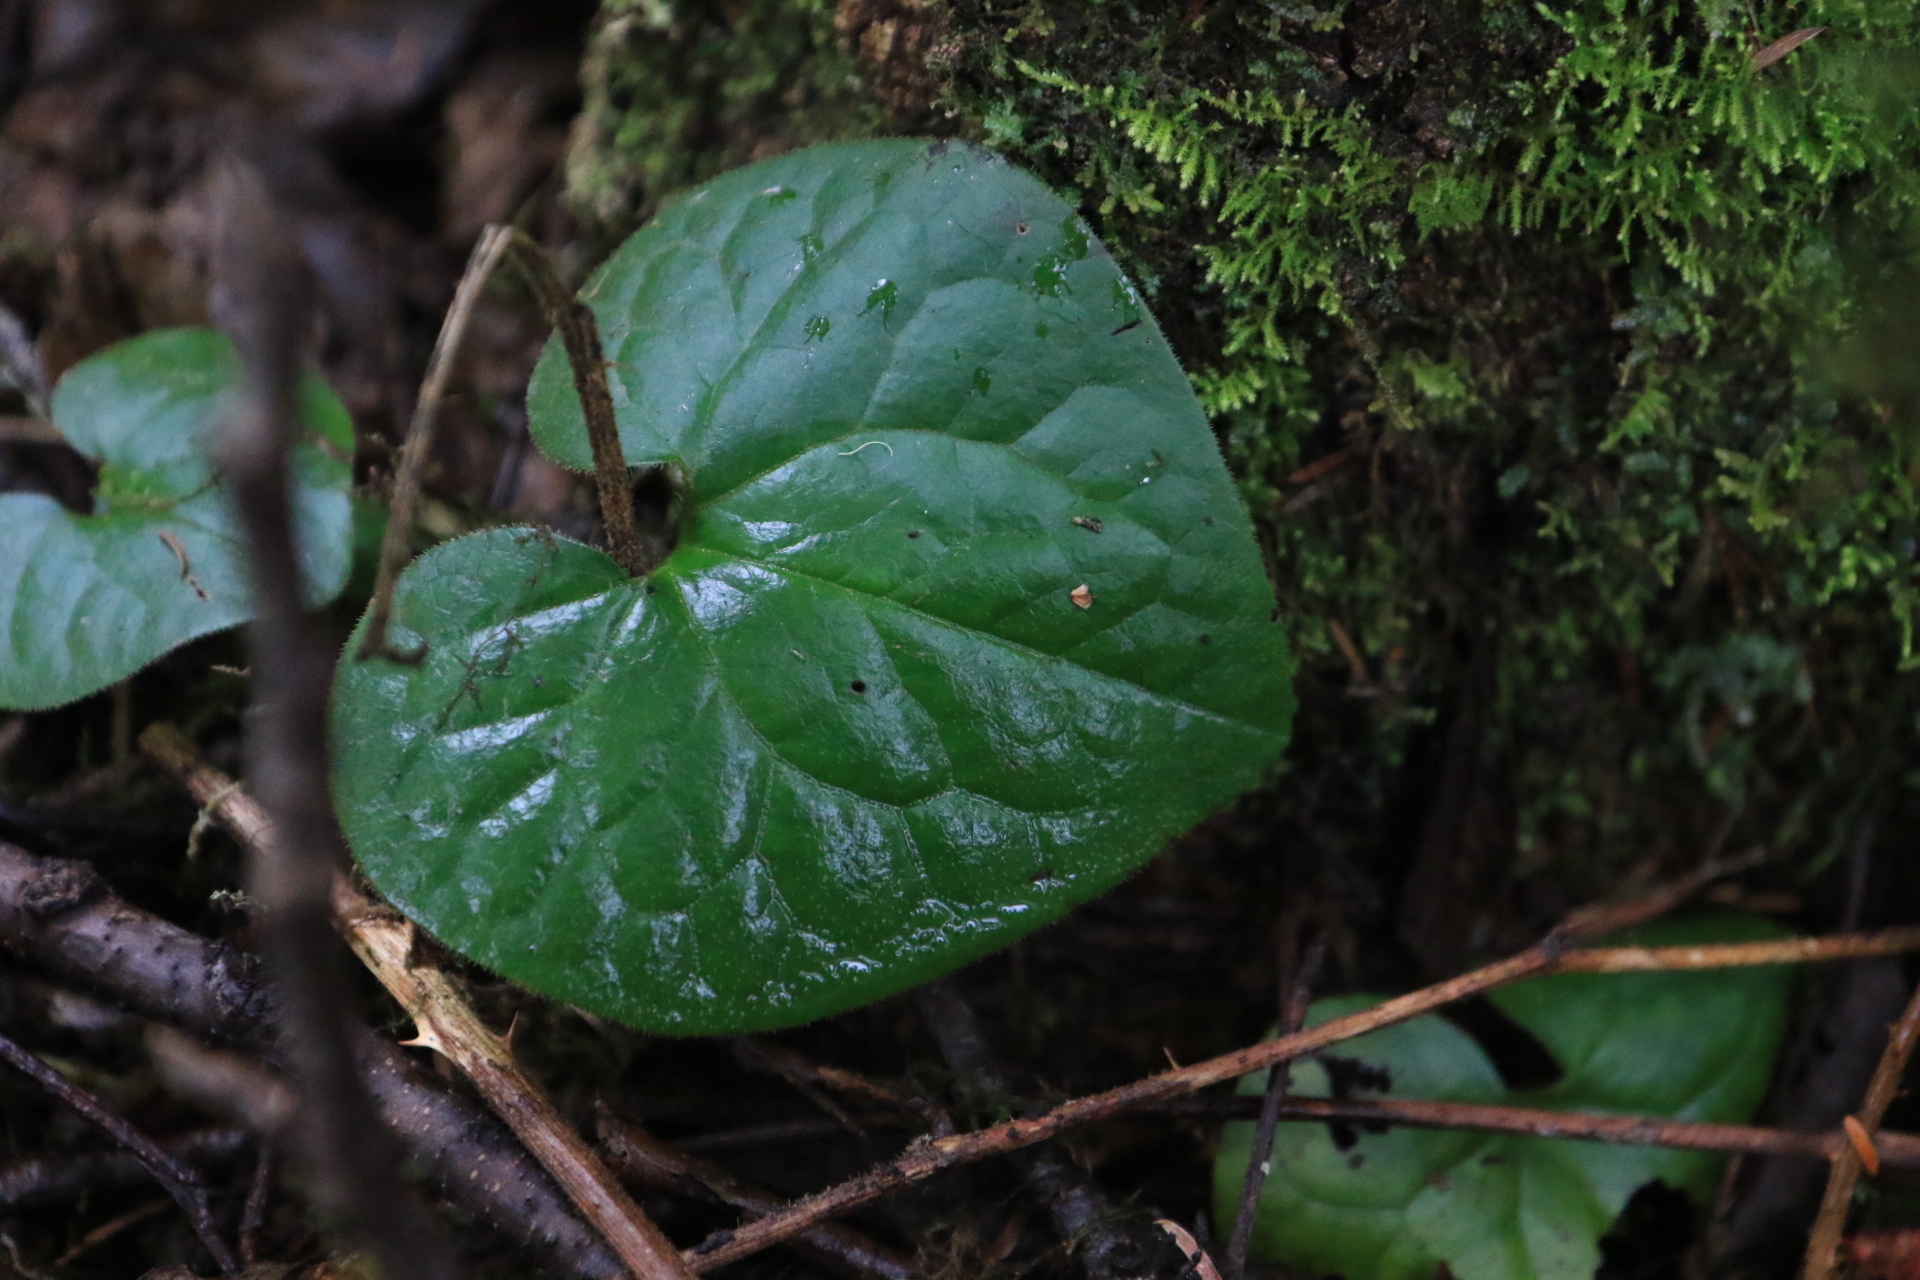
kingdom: Plantae
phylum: Tracheophyta
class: Magnoliopsida
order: Piperales
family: Aristolochiaceae
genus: Asarum
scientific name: Asarum caudatum
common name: Wild ginger
